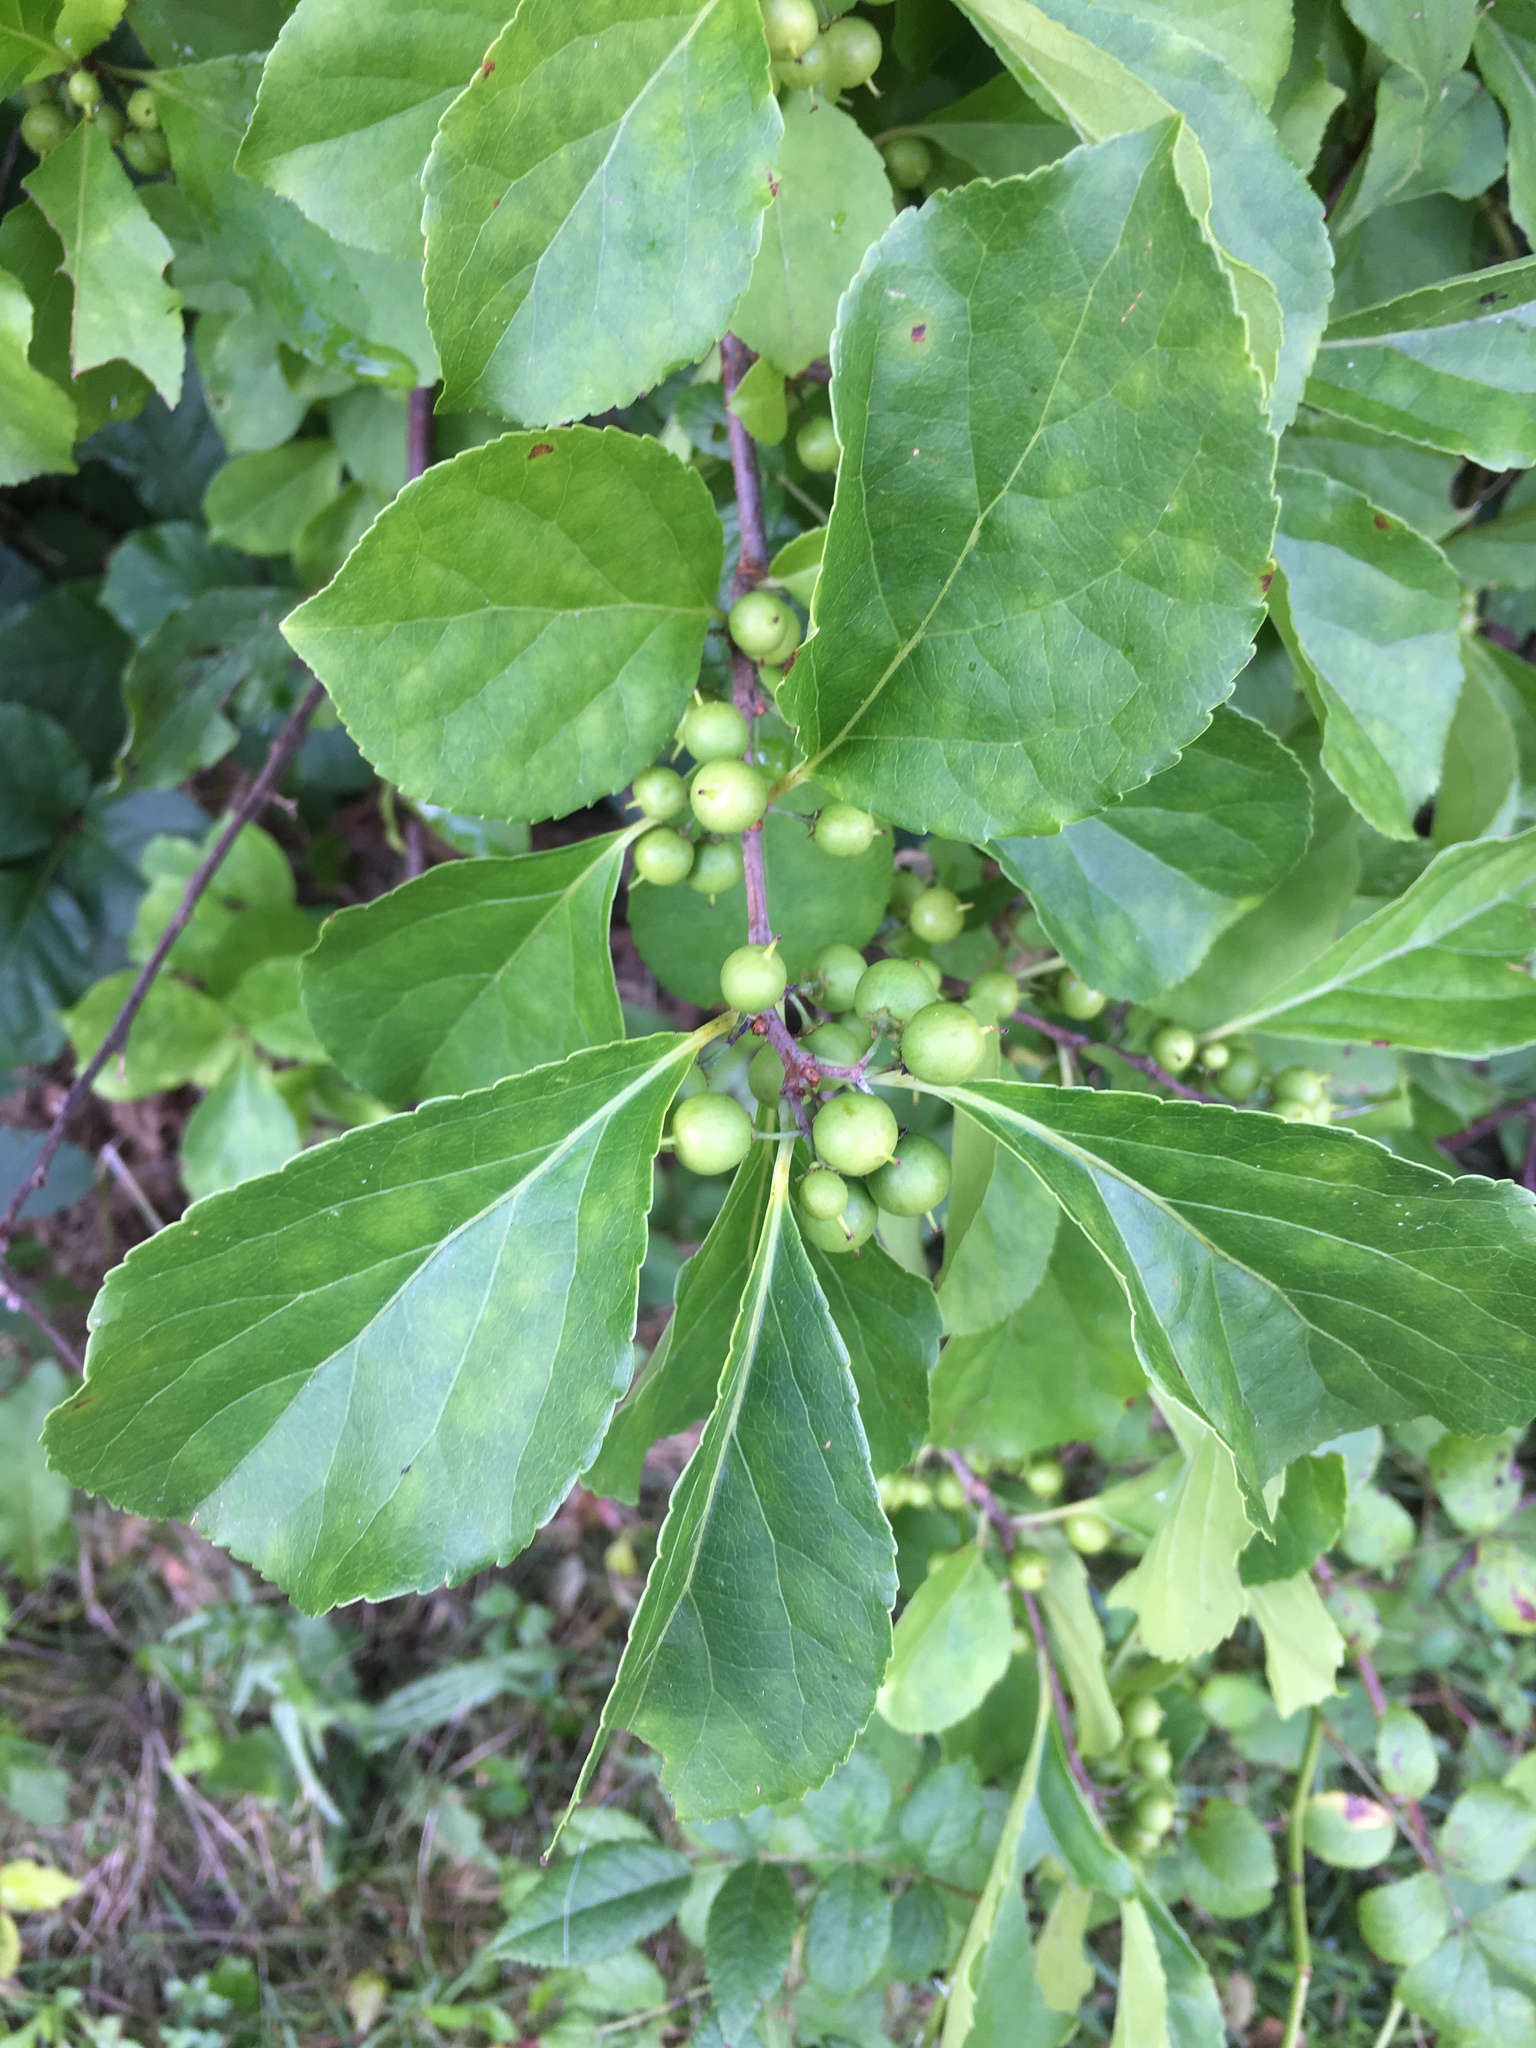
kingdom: Plantae
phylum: Tracheophyta
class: Magnoliopsida
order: Celastrales
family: Celastraceae
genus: Celastrus
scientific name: Celastrus orbiculatus
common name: Oriental bittersweet
